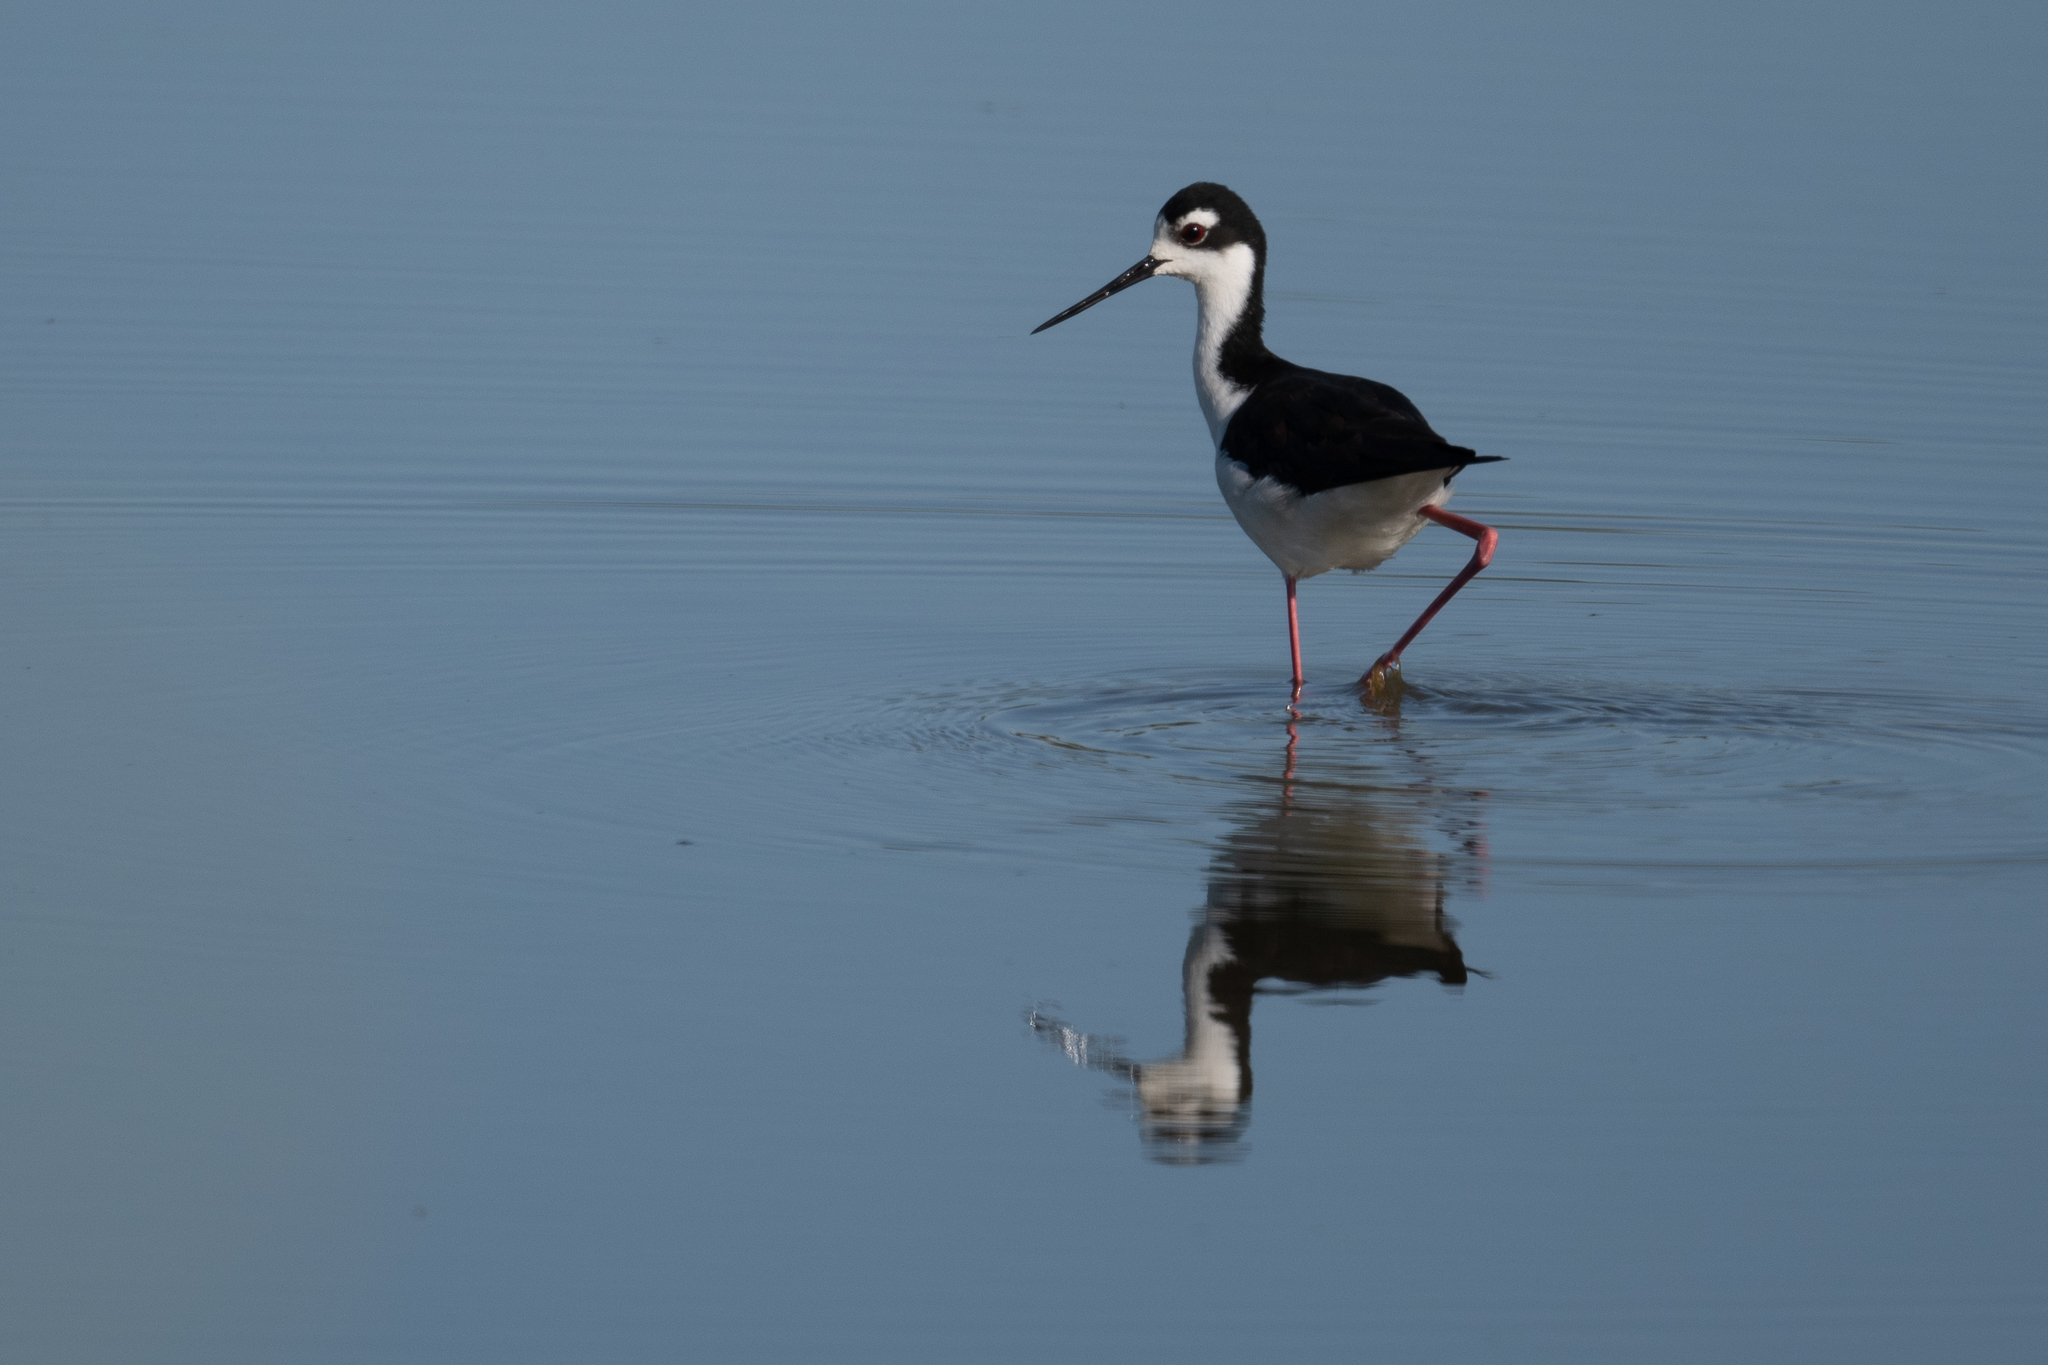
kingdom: Animalia
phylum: Chordata
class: Aves
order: Charadriiformes
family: Recurvirostridae
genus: Himantopus
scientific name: Himantopus mexicanus
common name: Black-necked stilt
